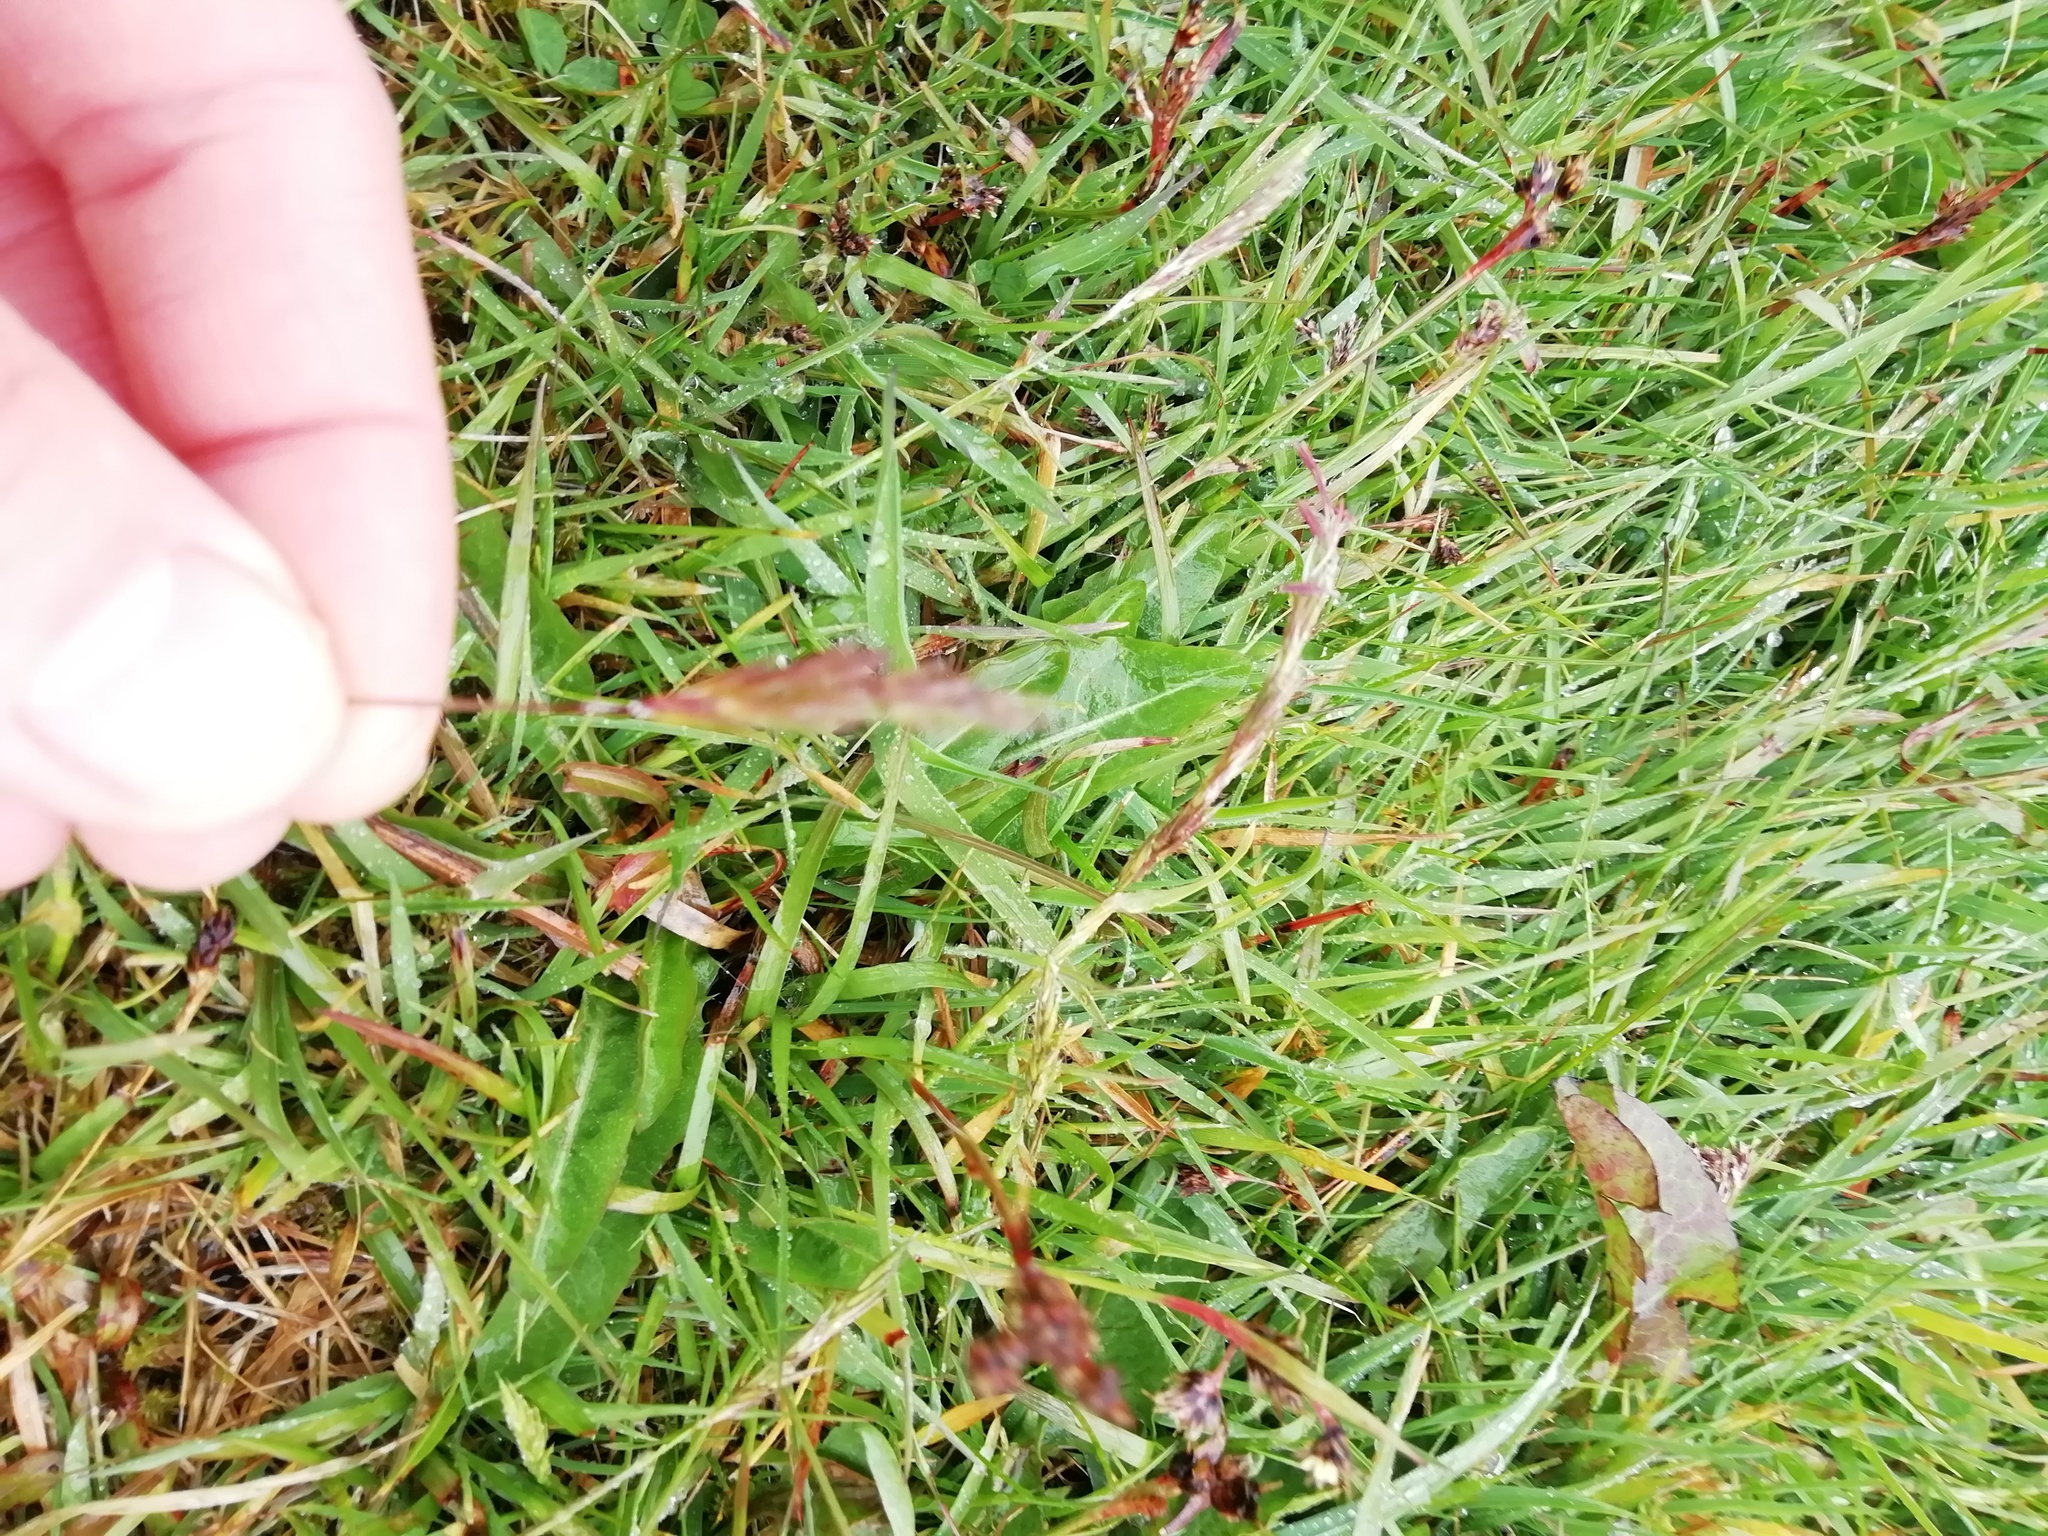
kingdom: Plantae
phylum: Tracheophyta
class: Liliopsida
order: Poales
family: Poaceae
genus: Anthoxanthum
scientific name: Anthoxanthum odoratum
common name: Sweet vernalgrass
